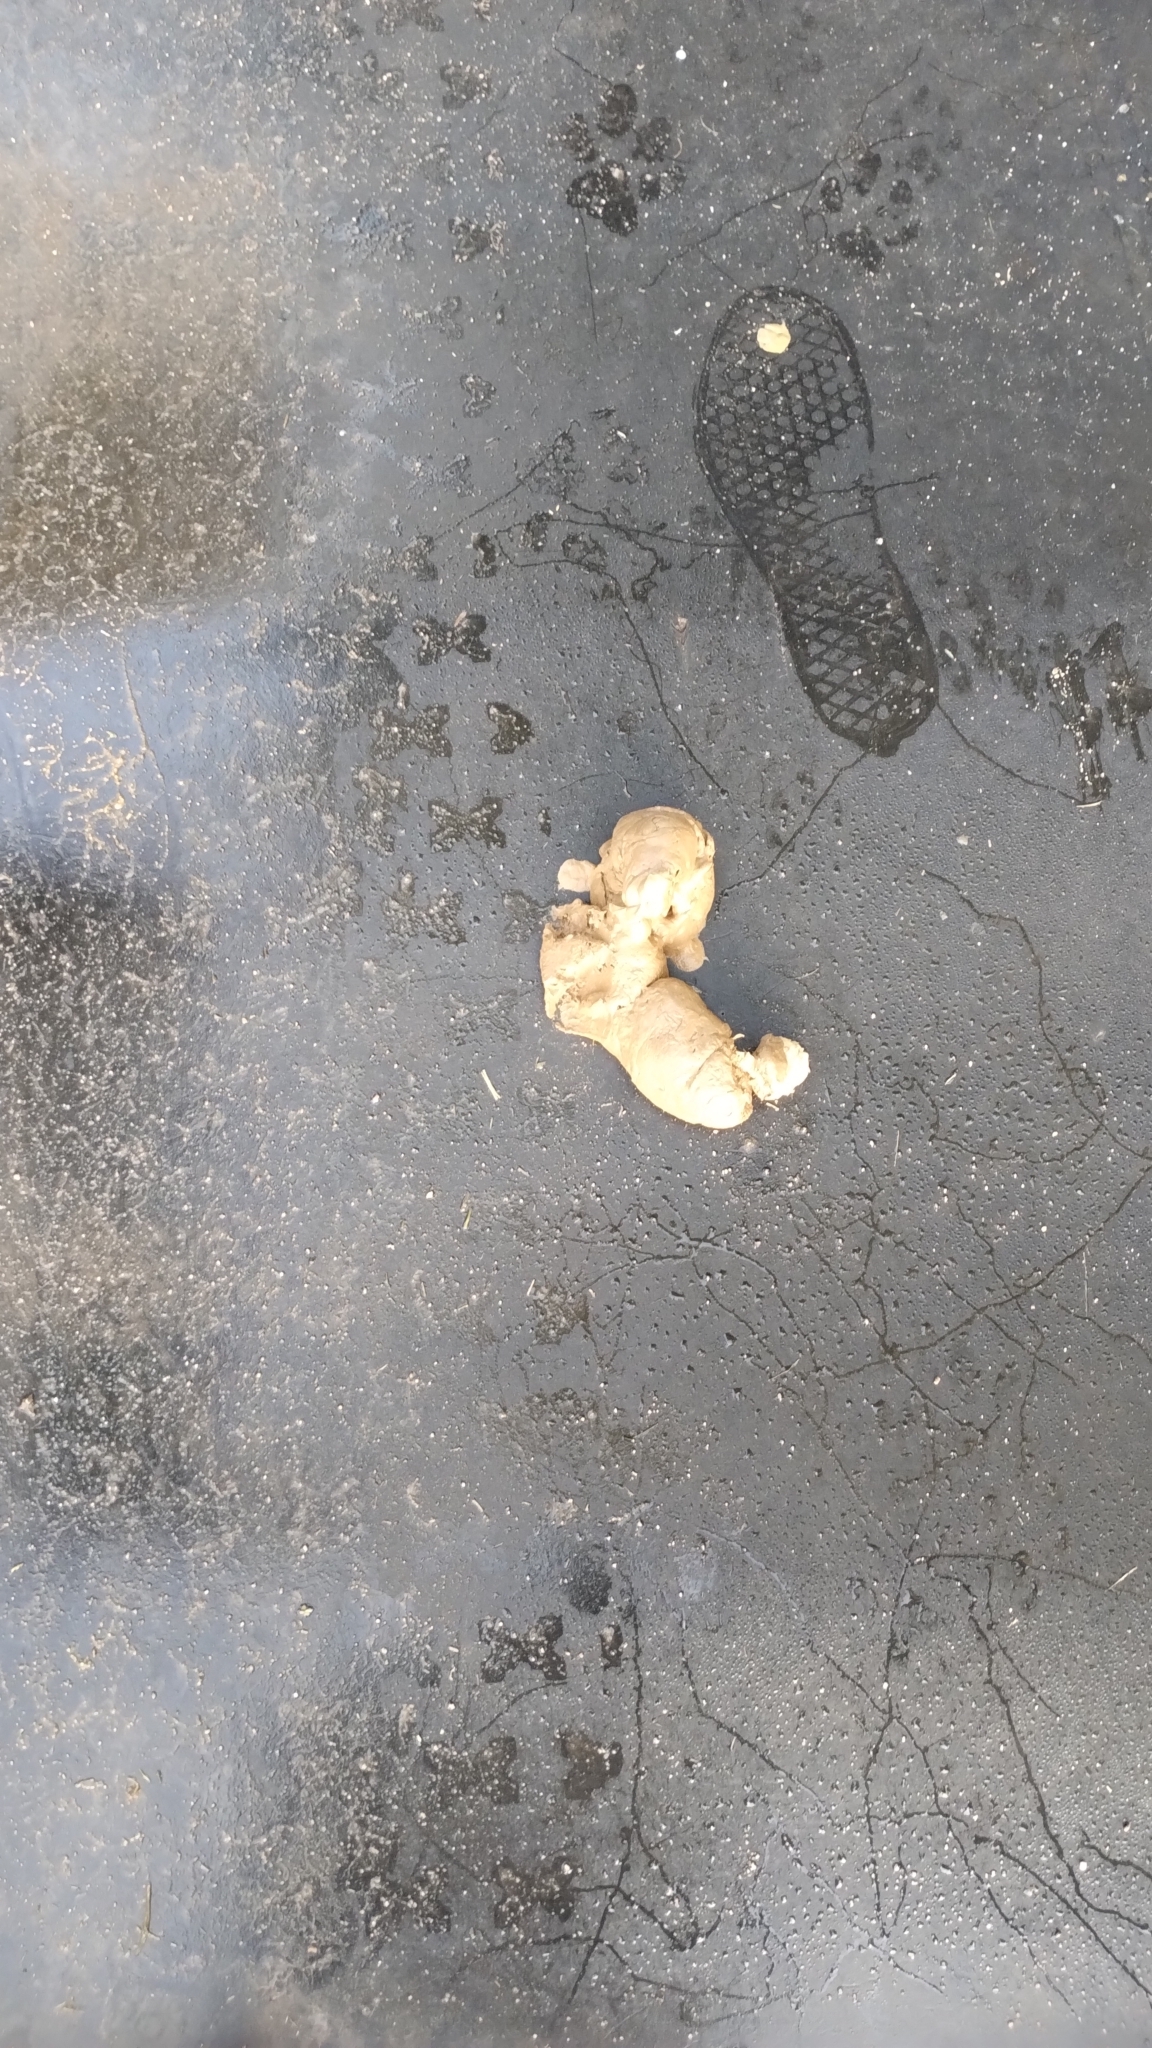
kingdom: Animalia
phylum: Chordata
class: Mammalia
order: Carnivora
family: Hyaenidae
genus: Crocuta
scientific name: Crocuta crocuta
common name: Spotted hyaena
